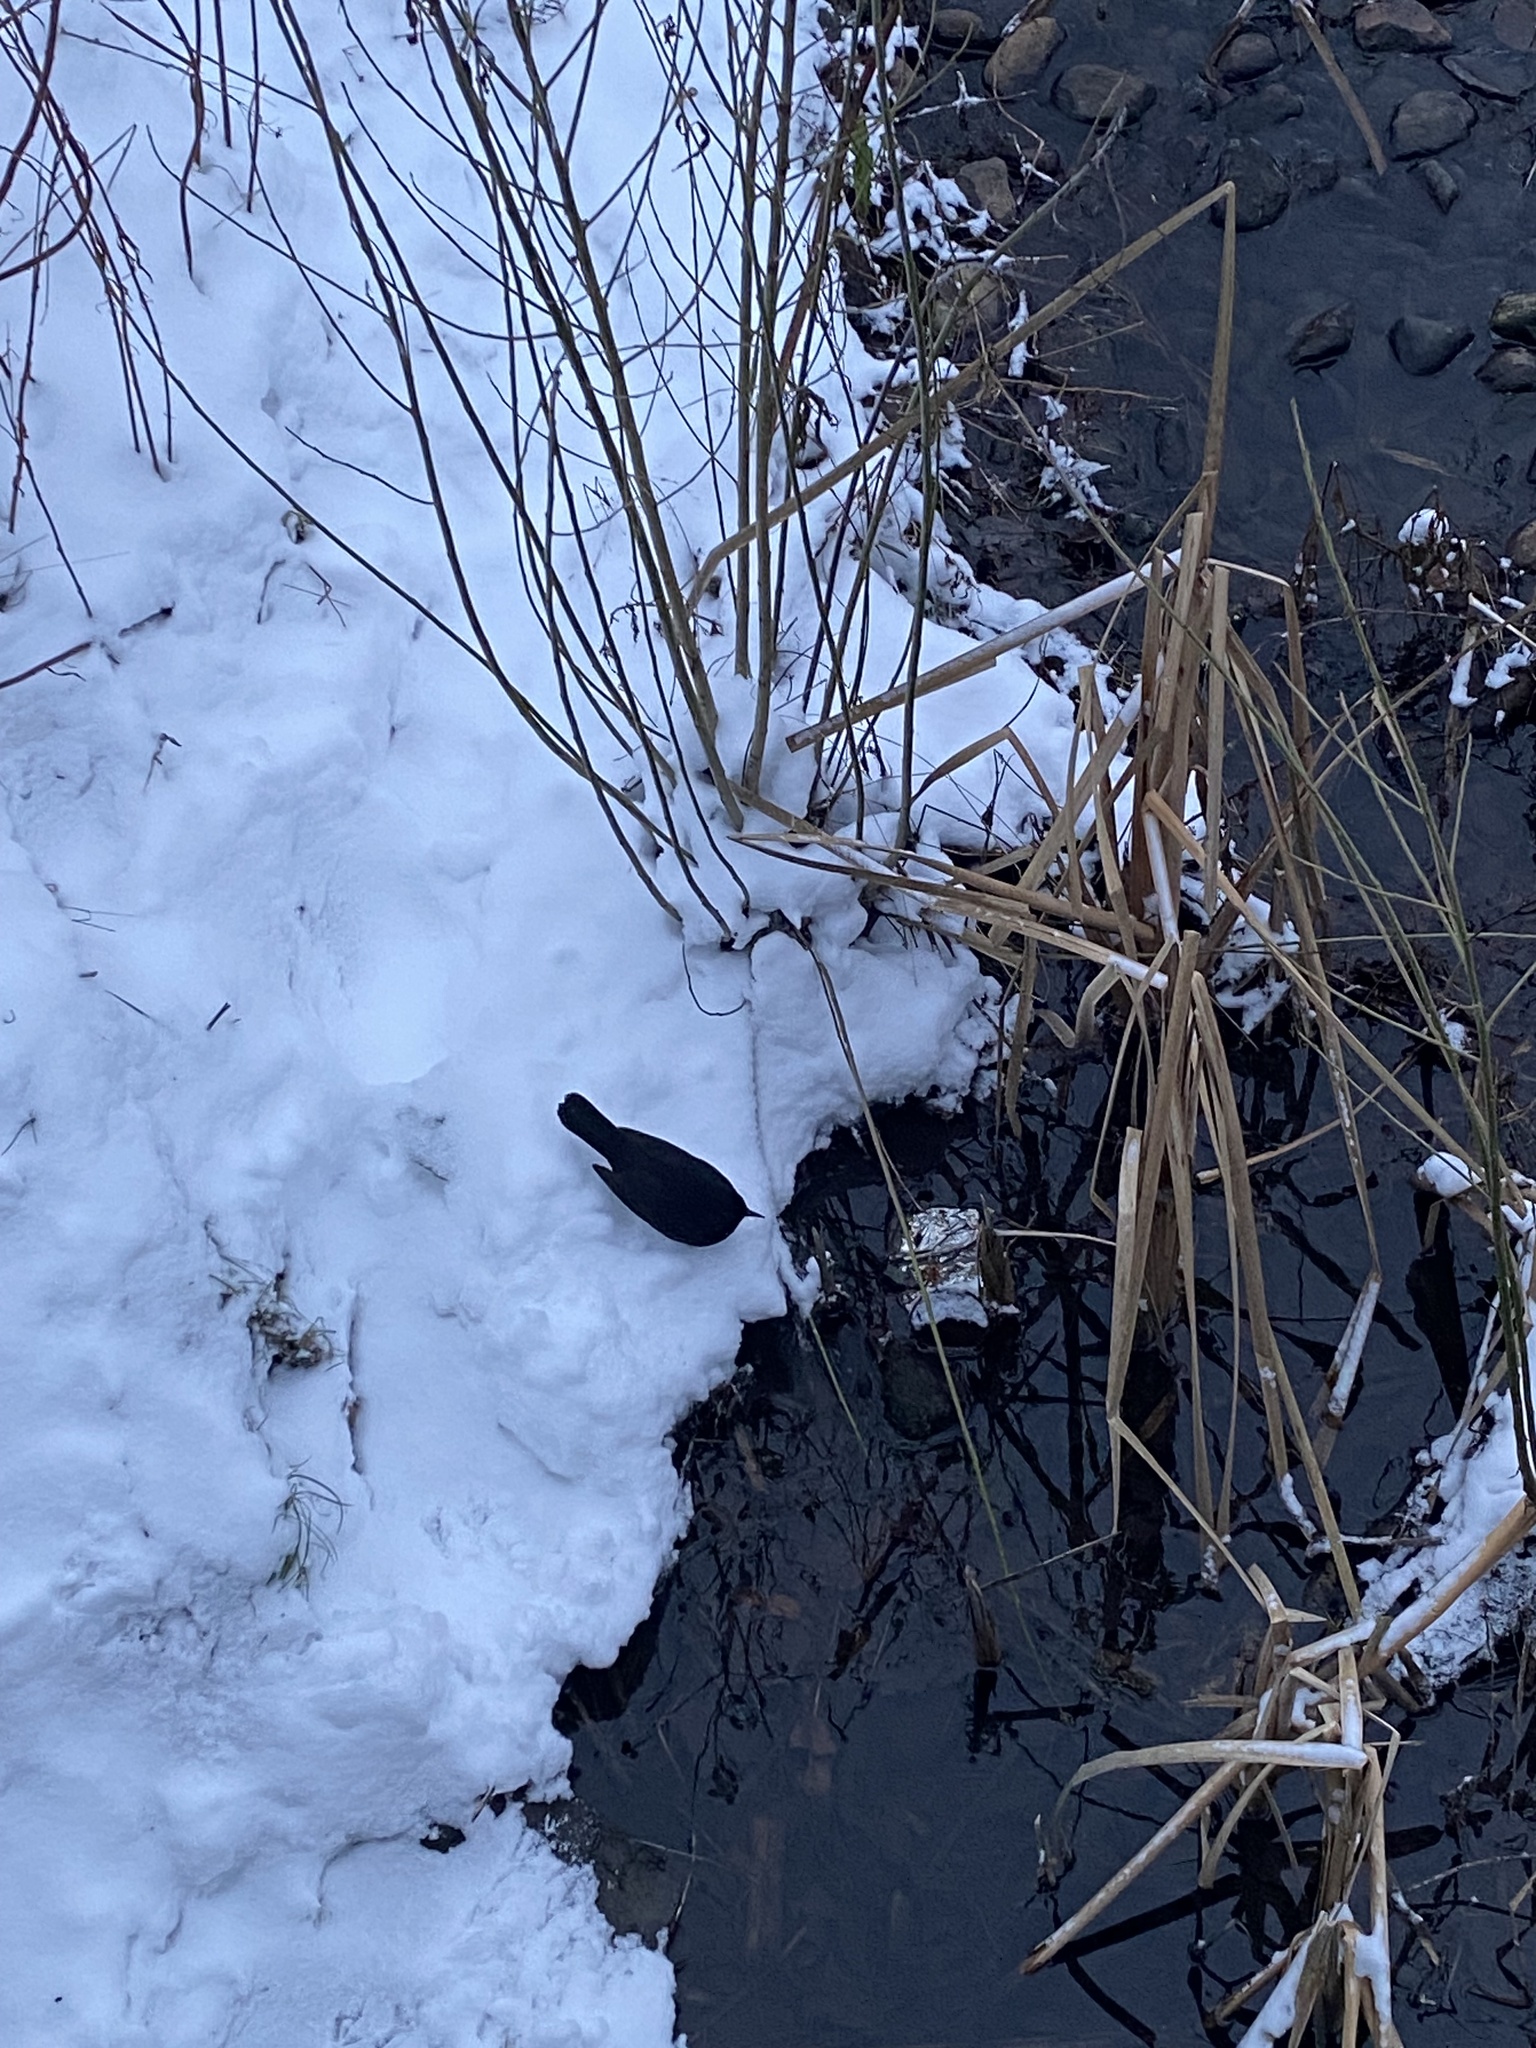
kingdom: Animalia
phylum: Chordata
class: Aves
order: Passeriformes
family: Turdidae
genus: Turdus
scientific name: Turdus merula
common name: Common blackbird
